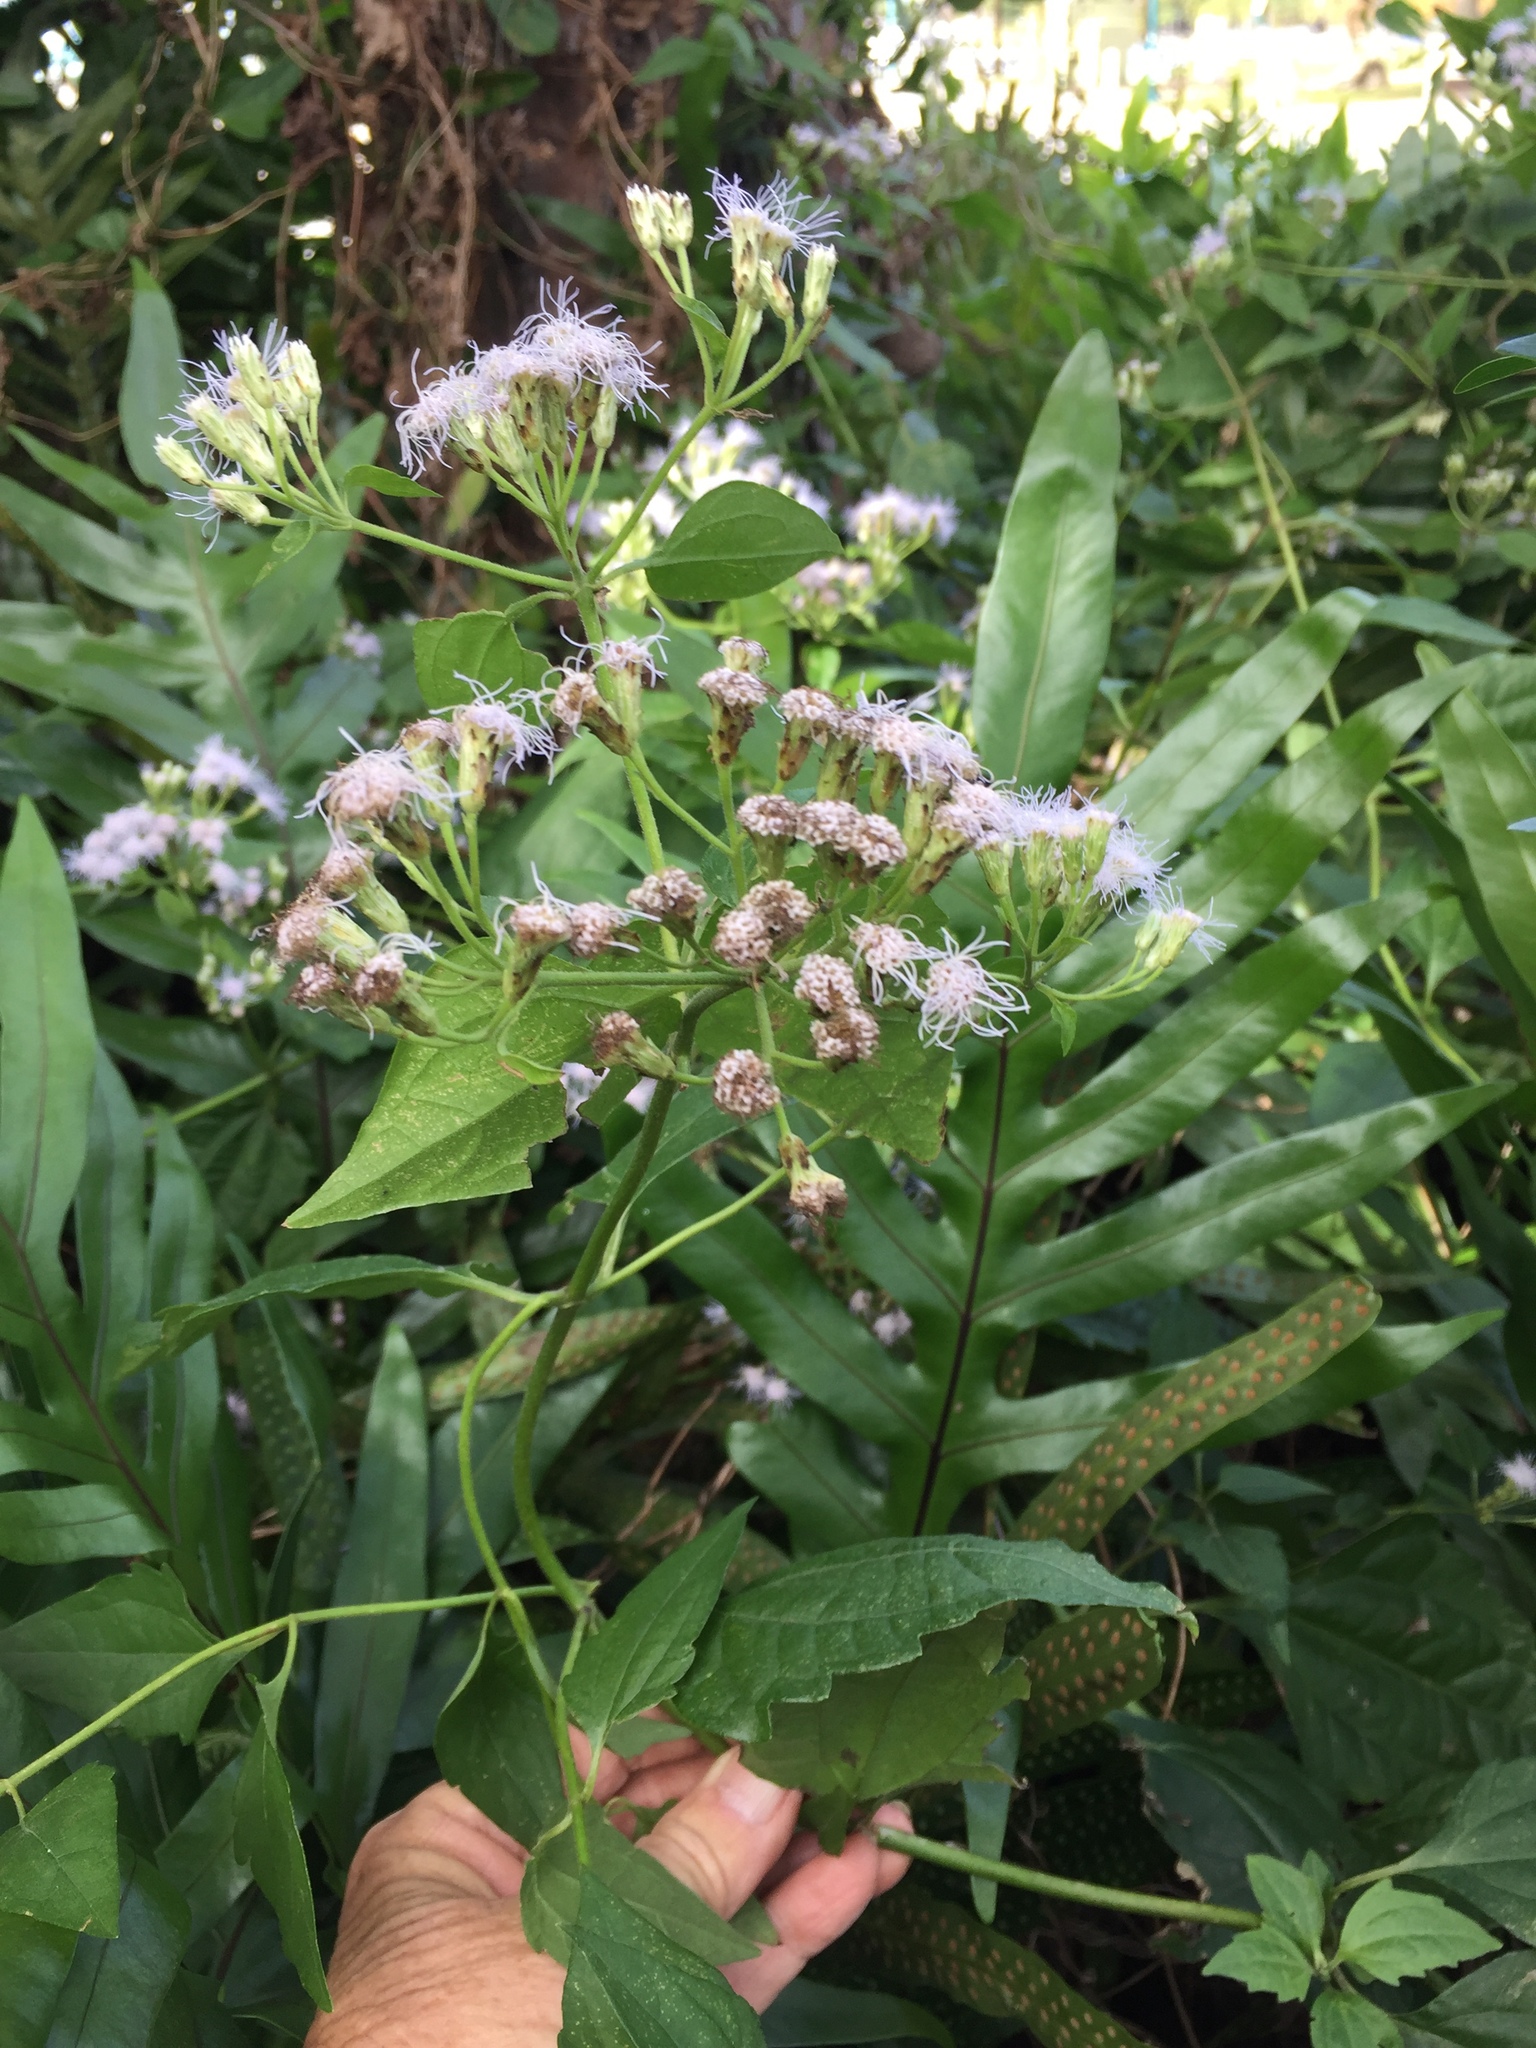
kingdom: Plantae
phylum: Tracheophyta
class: Magnoliopsida
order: Asterales
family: Asteraceae
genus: Chromolaena
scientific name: Chromolaena odorata
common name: Siamweed
